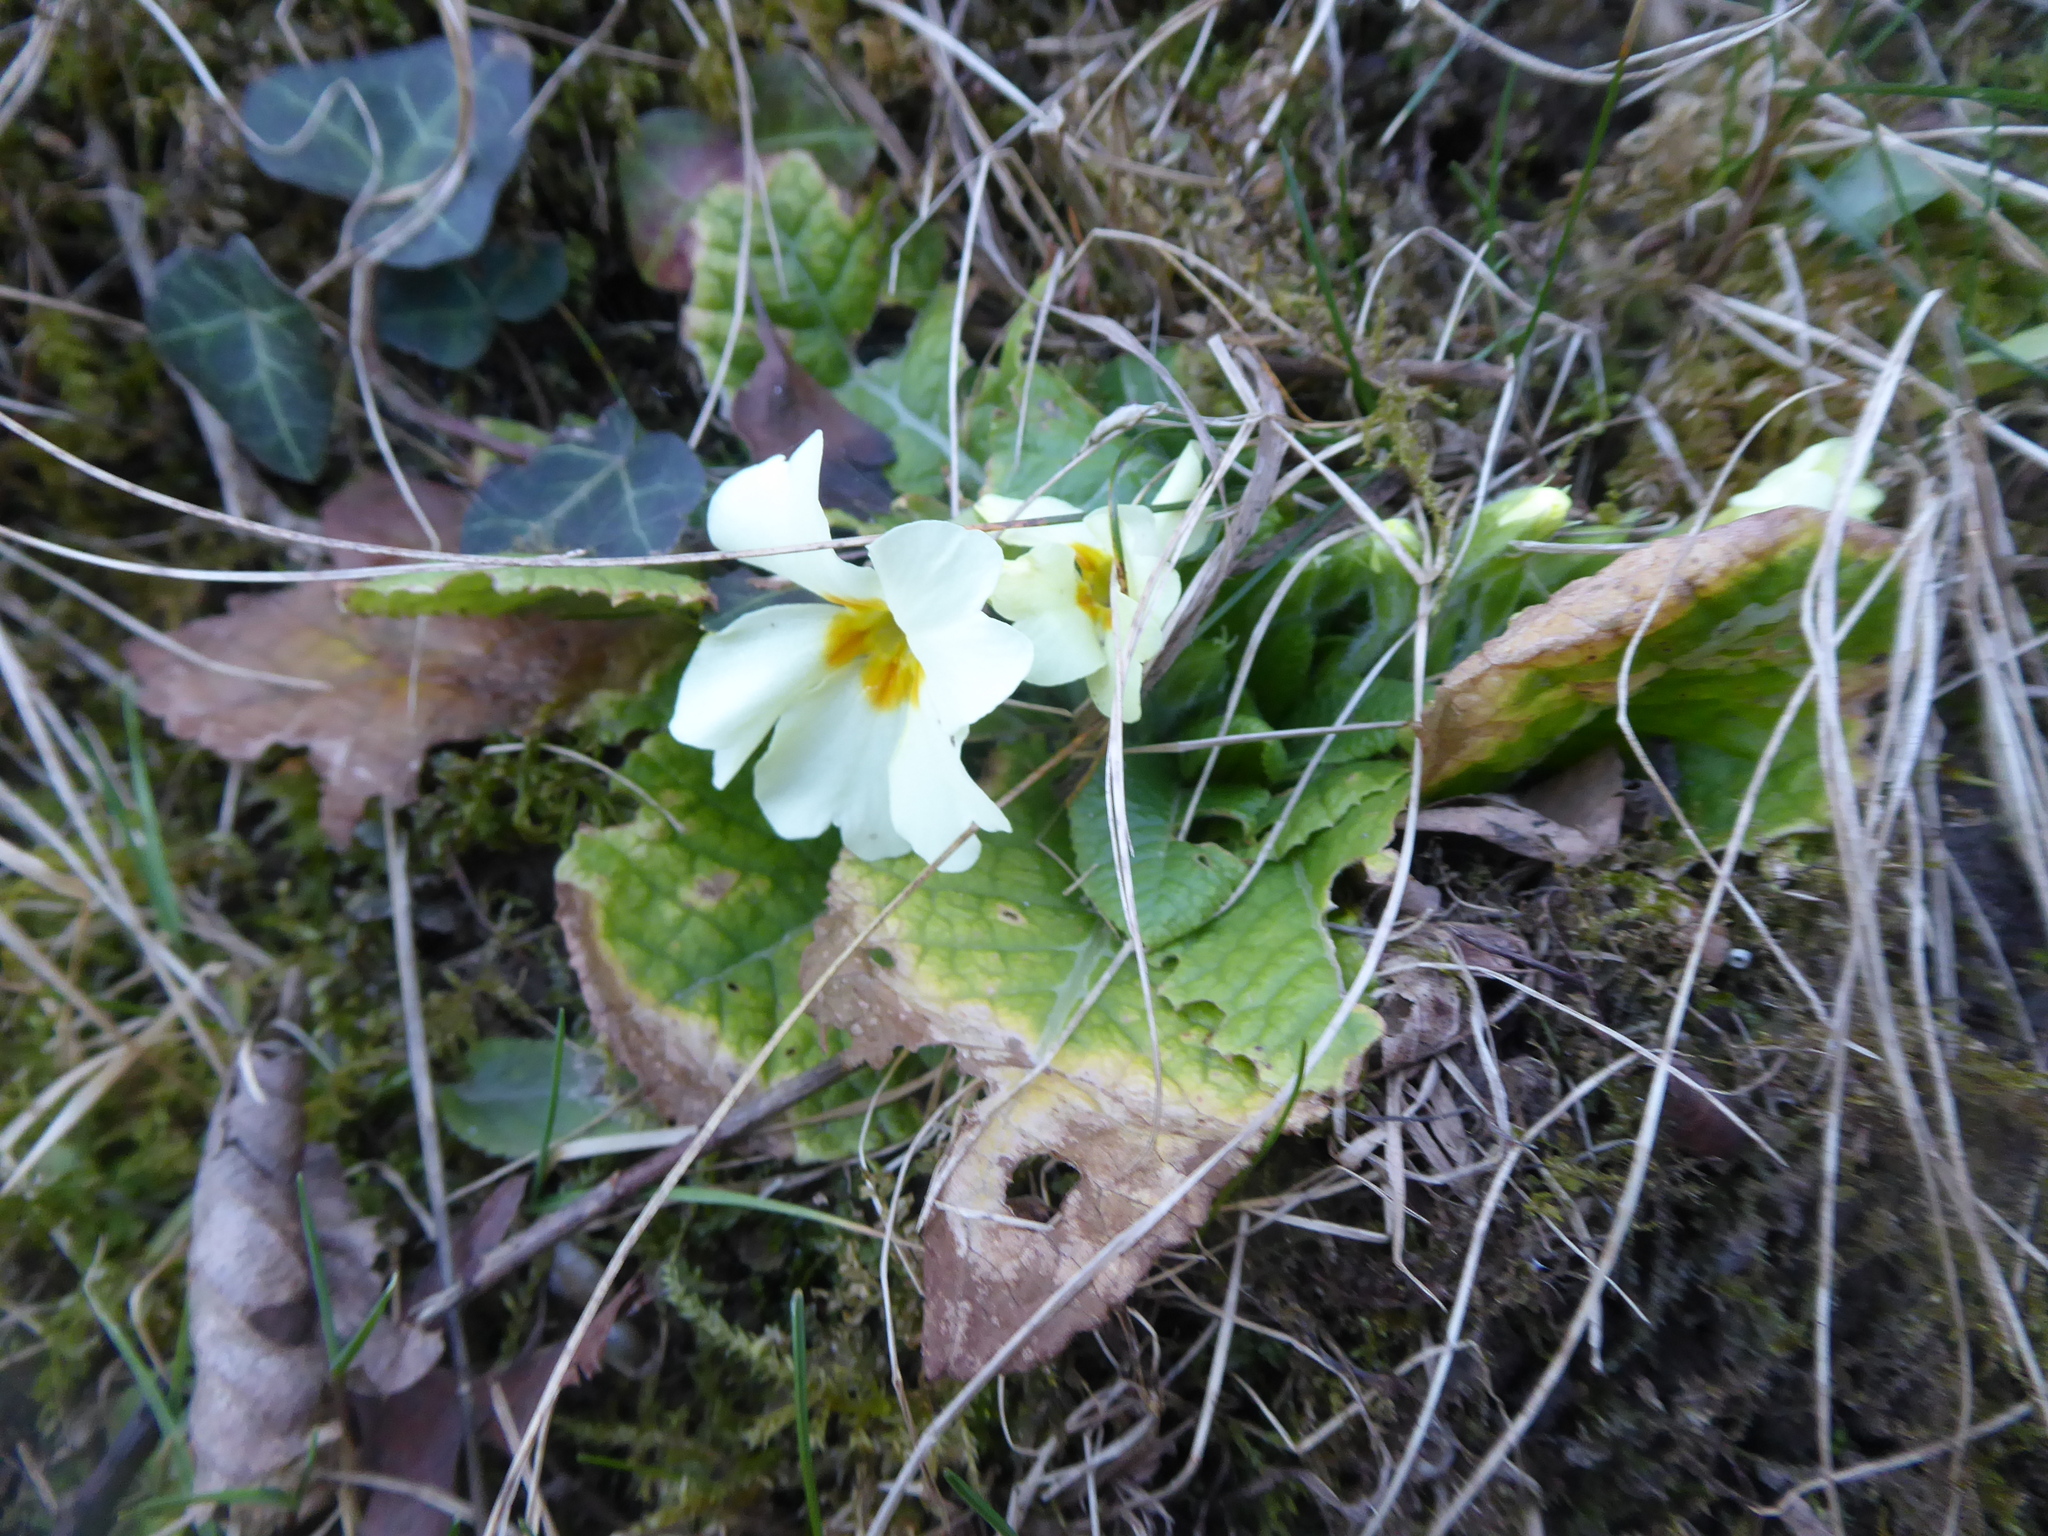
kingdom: Plantae
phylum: Tracheophyta
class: Magnoliopsida
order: Ericales
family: Primulaceae
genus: Primula
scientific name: Primula vulgaris
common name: Primrose
